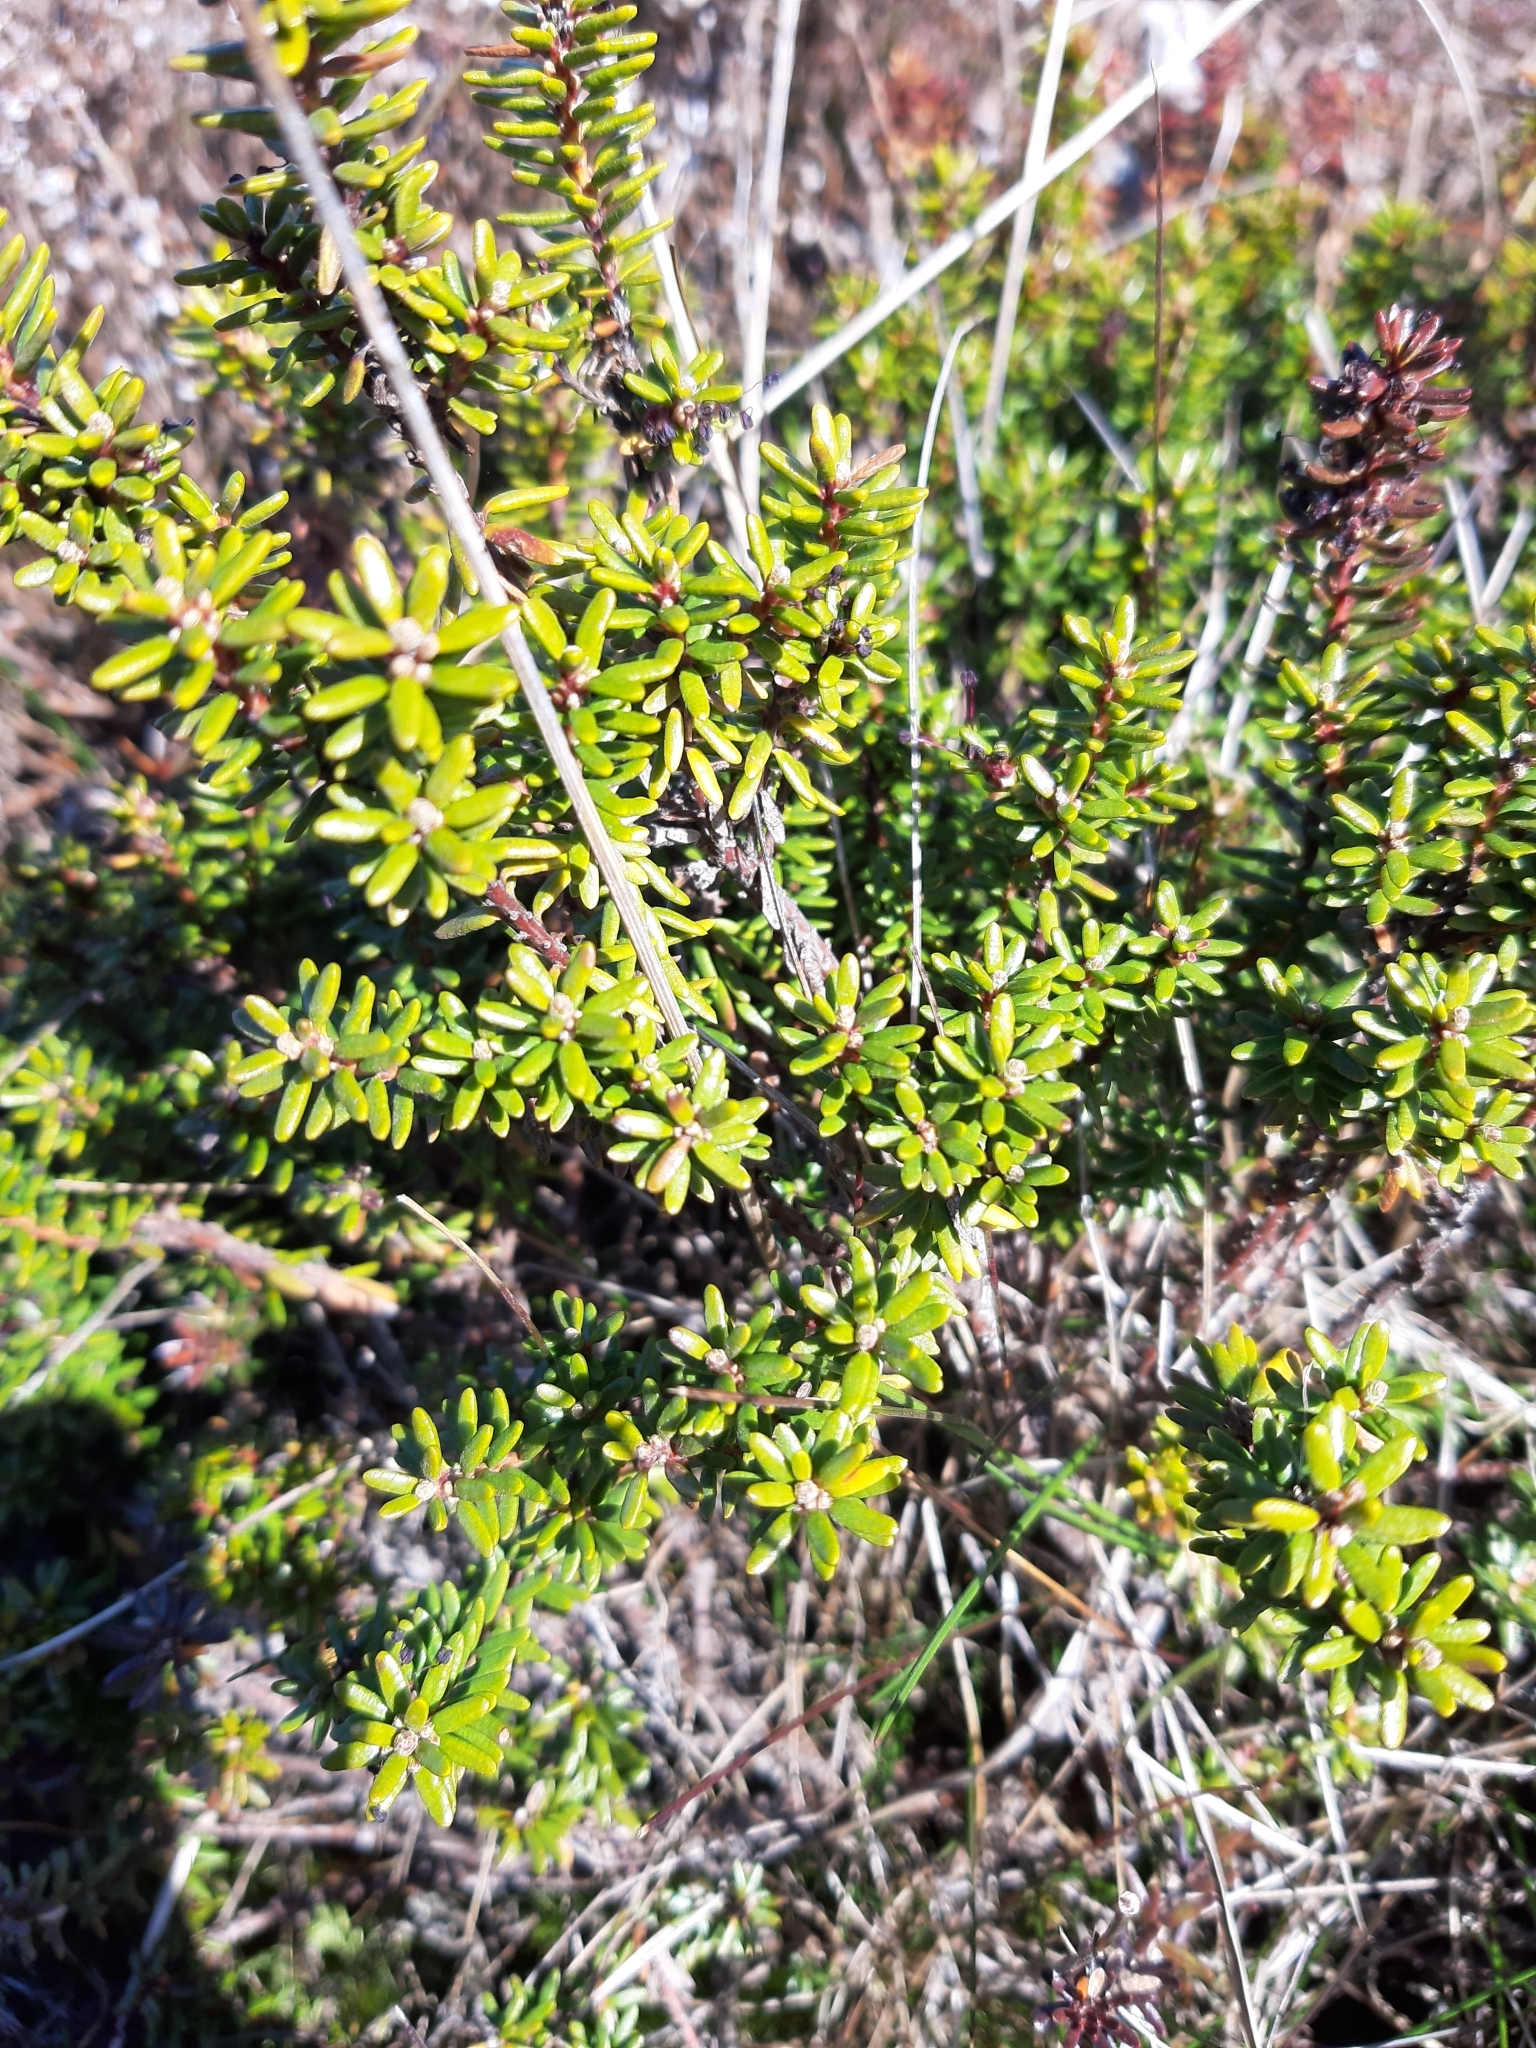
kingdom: Plantae
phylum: Tracheophyta
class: Magnoliopsida
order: Ericales
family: Ericaceae
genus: Empetrum
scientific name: Empetrum nigrum
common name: Black crowberry
